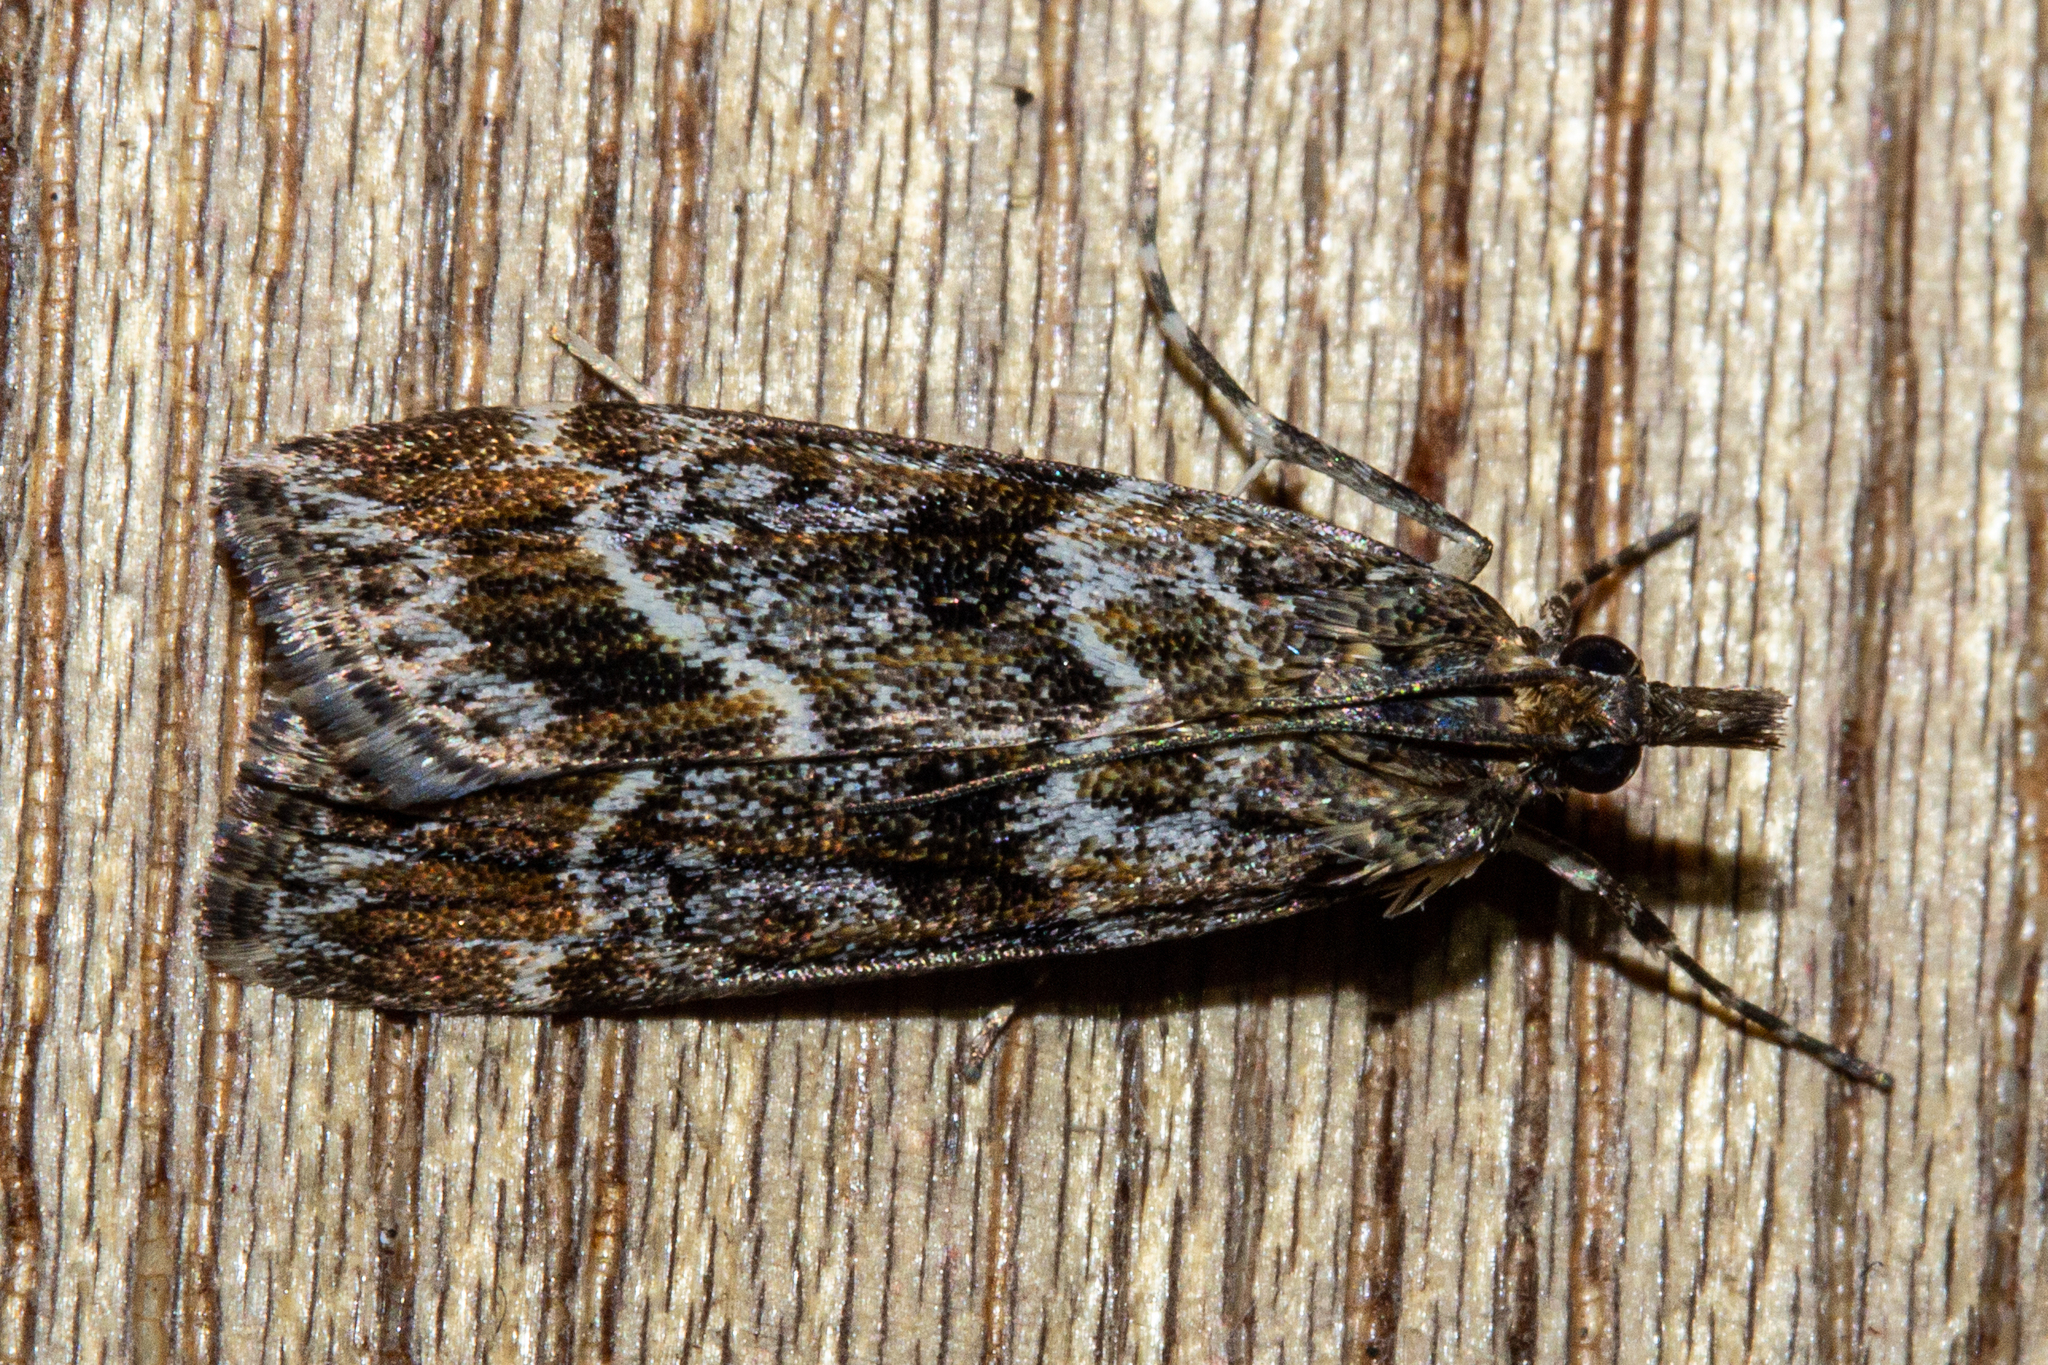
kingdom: Animalia
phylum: Arthropoda
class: Insecta
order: Lepidoptera
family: Crambidae
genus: Eudonia
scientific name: Eudonia legnota
